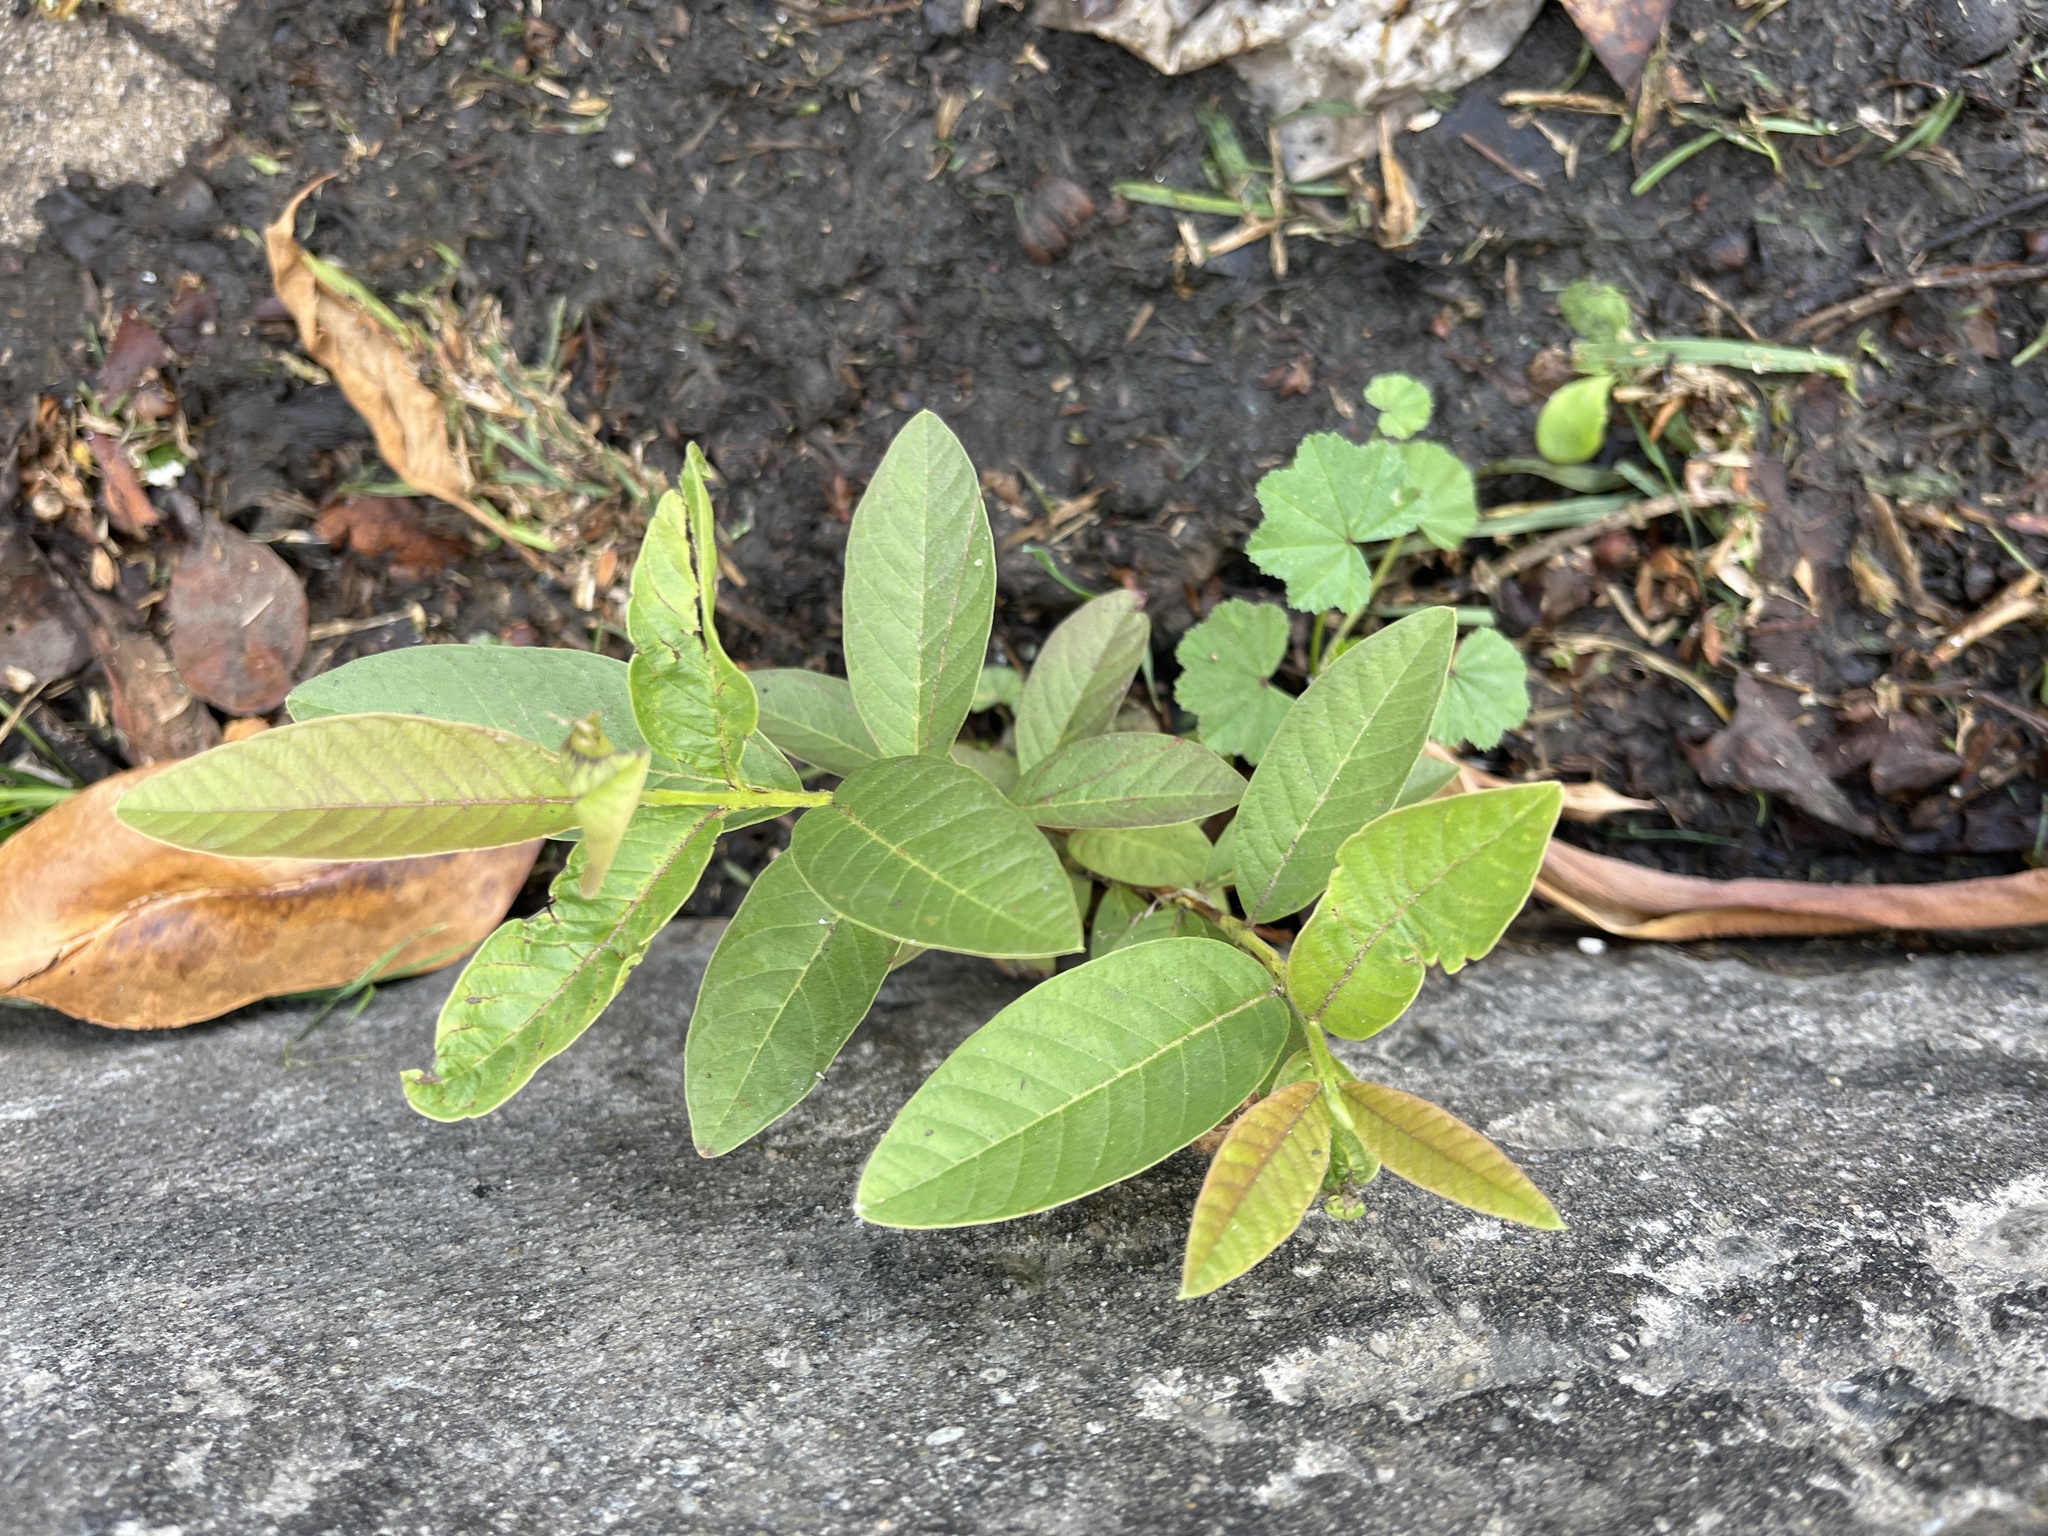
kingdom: Plantae
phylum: Tracheophyta
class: Magnoliopsida
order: Myrtales
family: Myrtaceae
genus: Psidium
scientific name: Psidium guajava
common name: Guava
